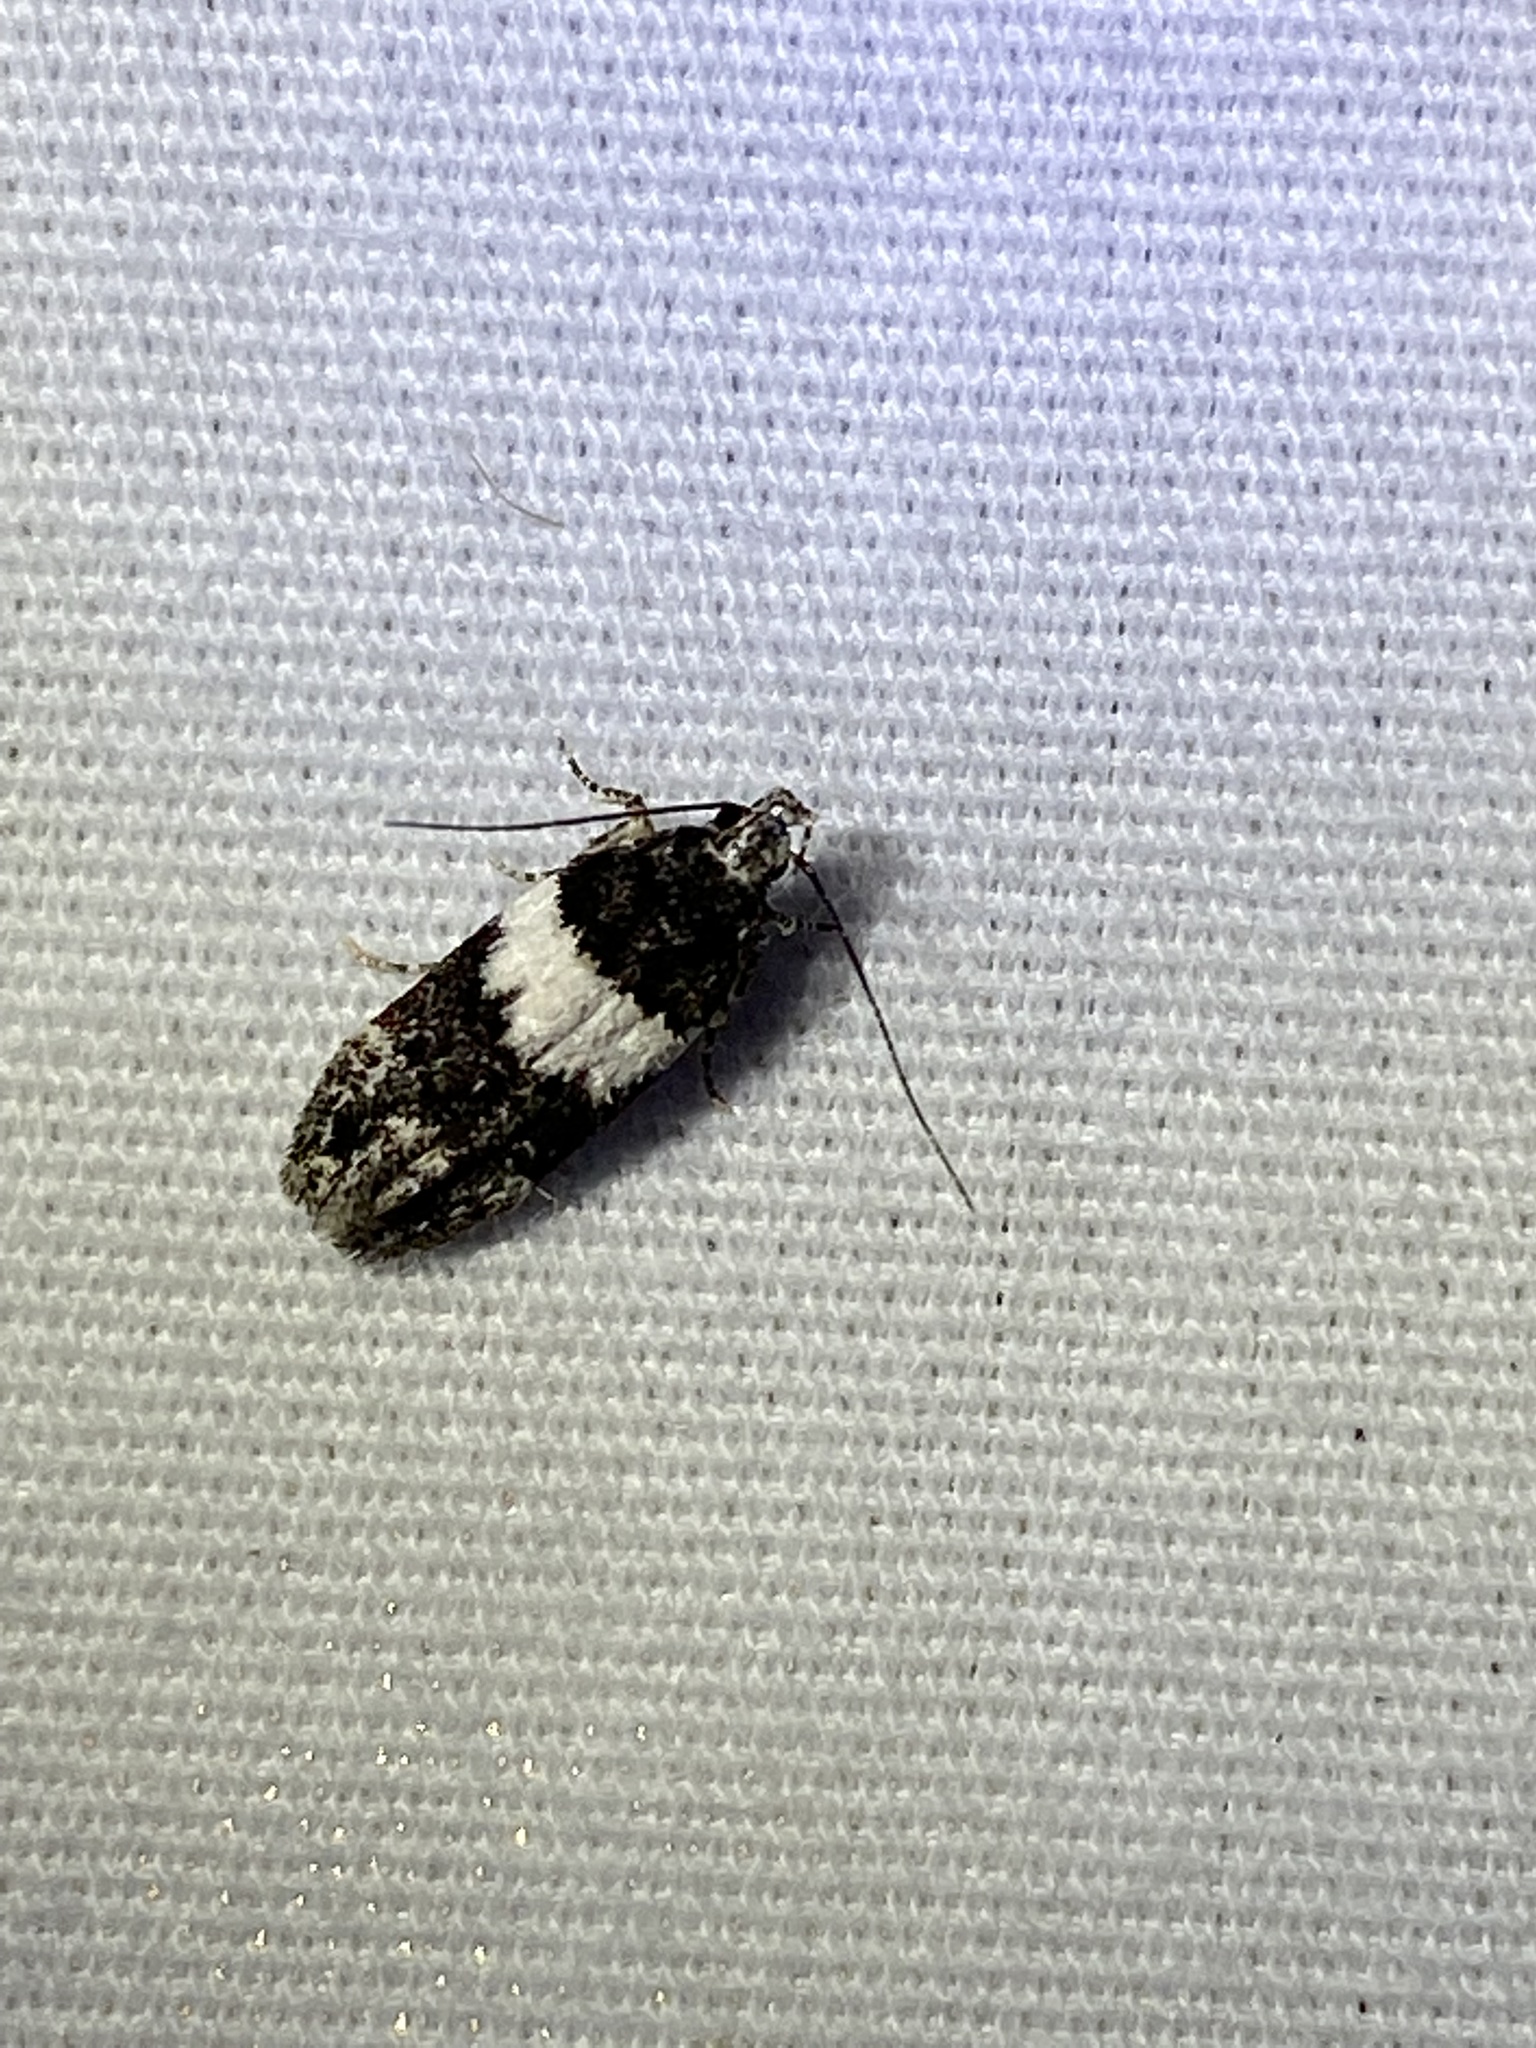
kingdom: Animalia
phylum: Arthropoda
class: Insecta
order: Lepidoptera
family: Gelechiidae
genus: Pubitelphusa
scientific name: Pubitelphusa latifasciella
